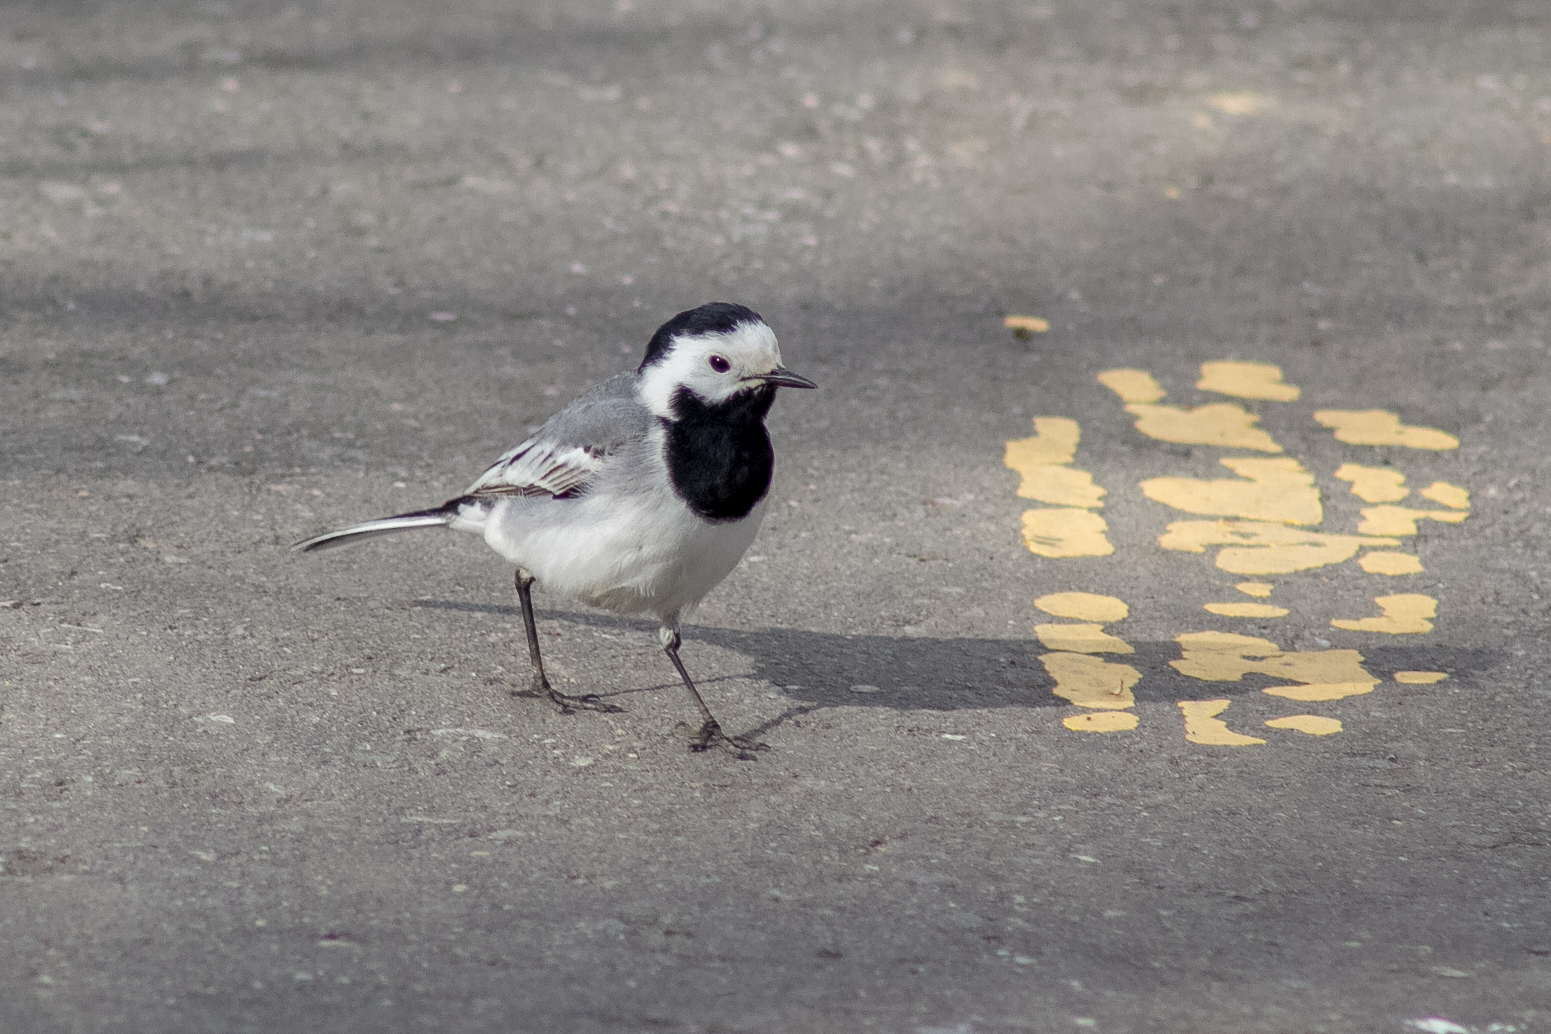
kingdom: Animalia
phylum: Chordata
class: Aves
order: Passeriformes
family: Motacillidae
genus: Motacilla
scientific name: Motacilla alba
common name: White wagtail
